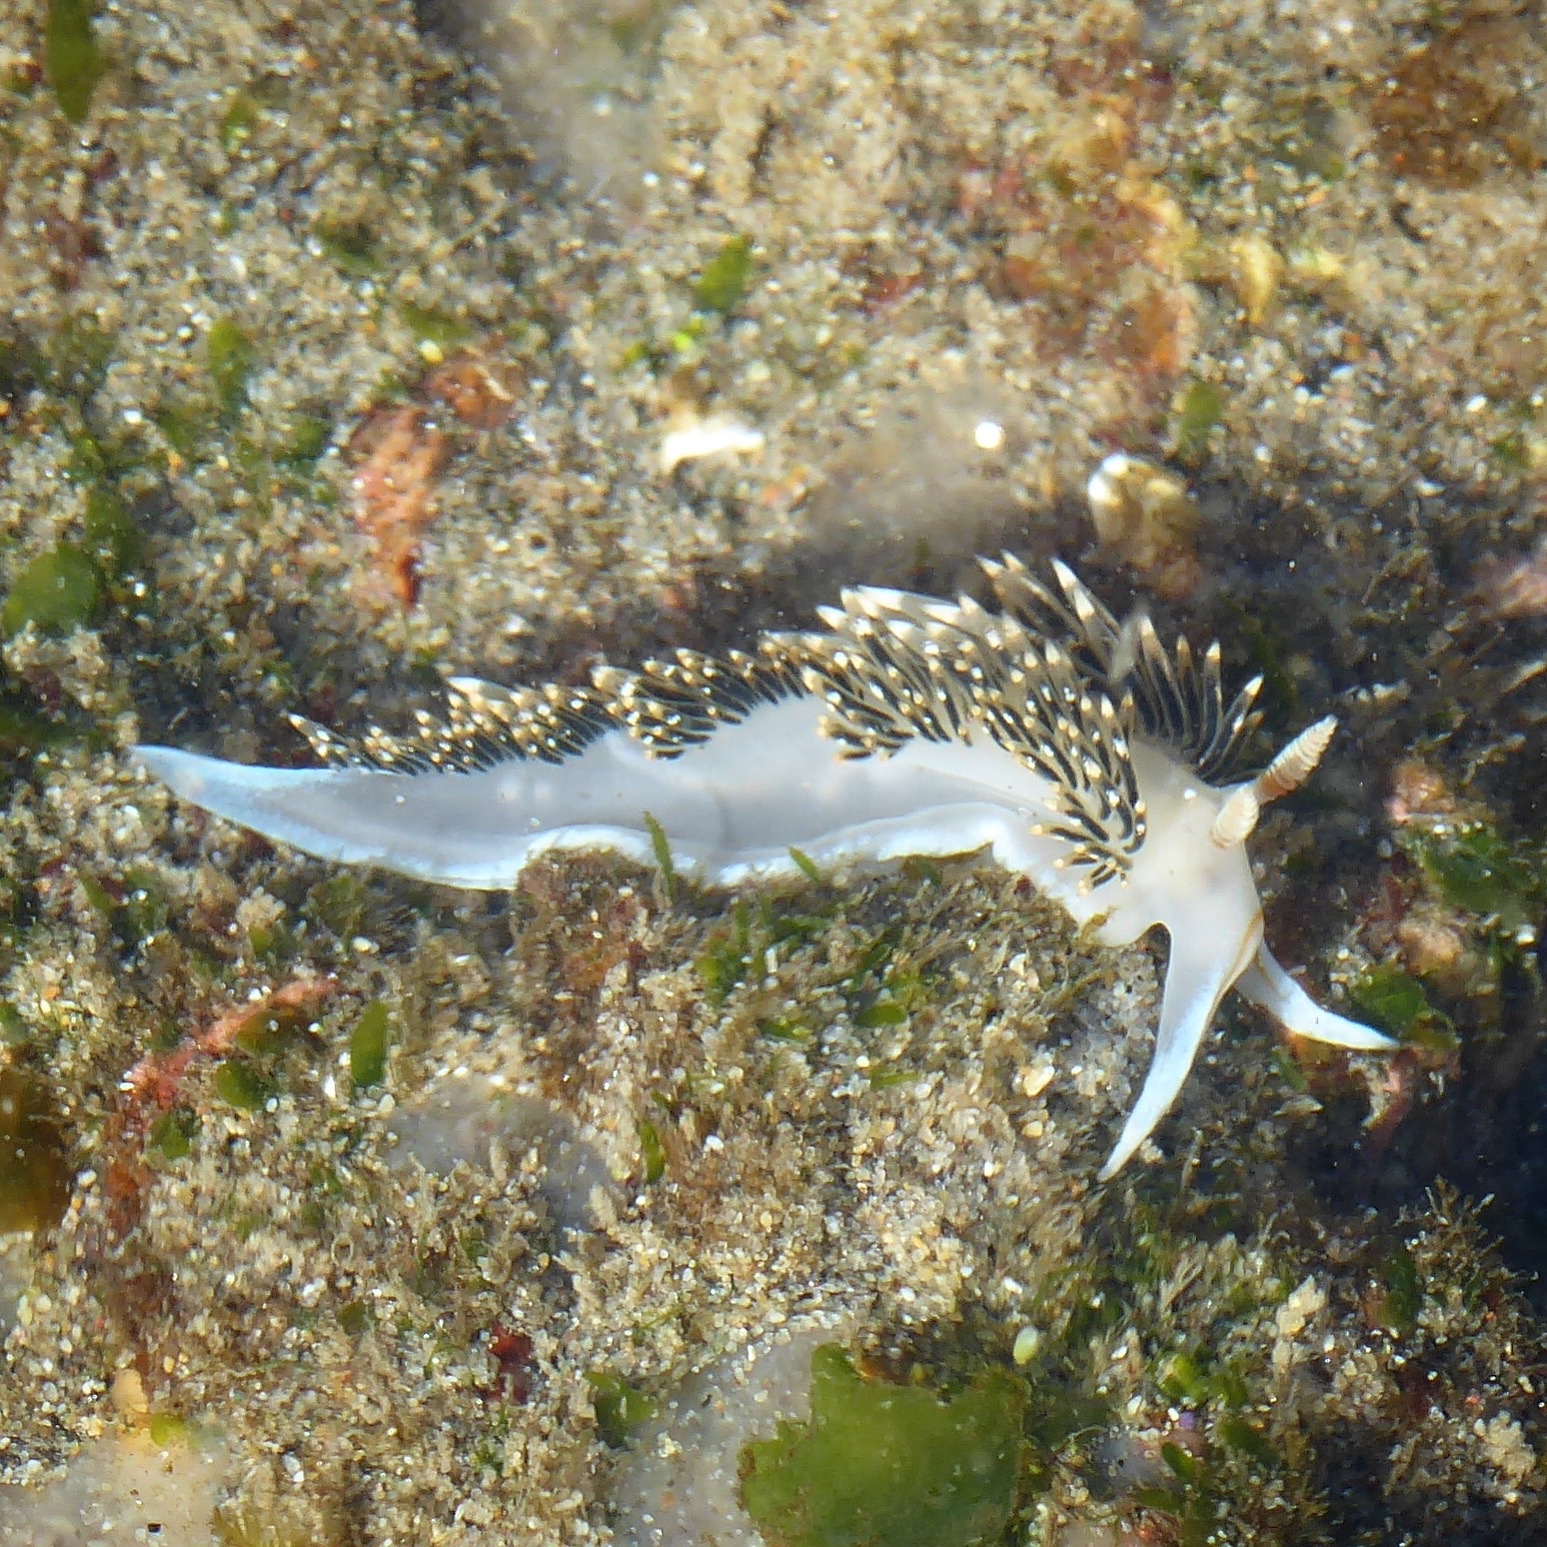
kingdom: Animalia
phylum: Mollusca
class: Gastropoda
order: Nudibranchia
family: Facelinidae
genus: Phidiana
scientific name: Phidiana hiltoni
